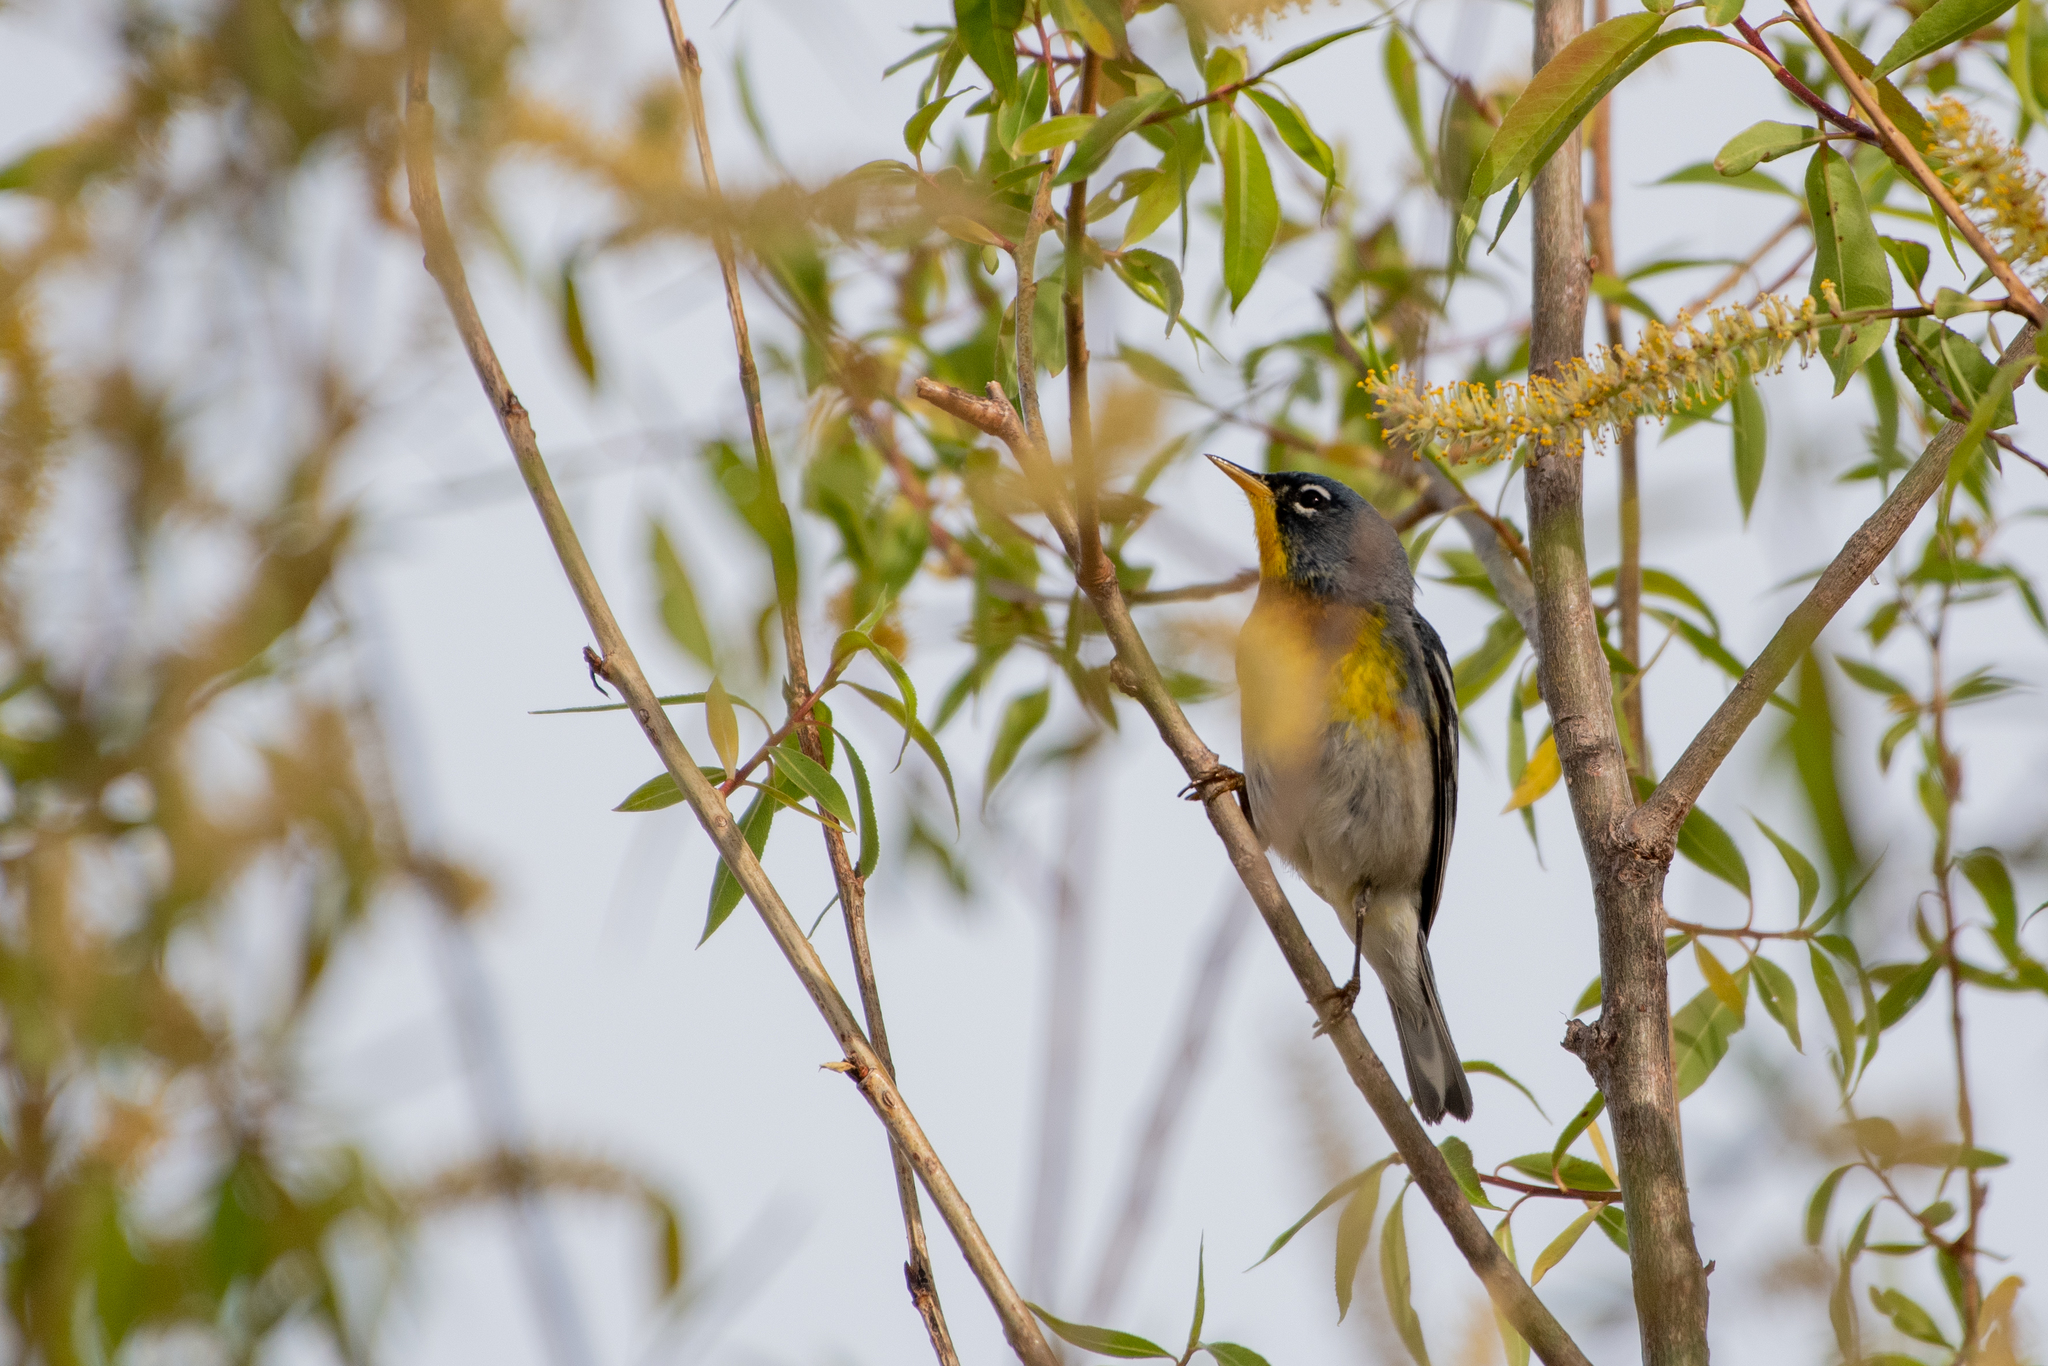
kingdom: Animalia
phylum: Chordata
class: Aves
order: Passeriformes
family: Parulidae
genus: Setophaga
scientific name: Setophaga americana
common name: Northern parula
